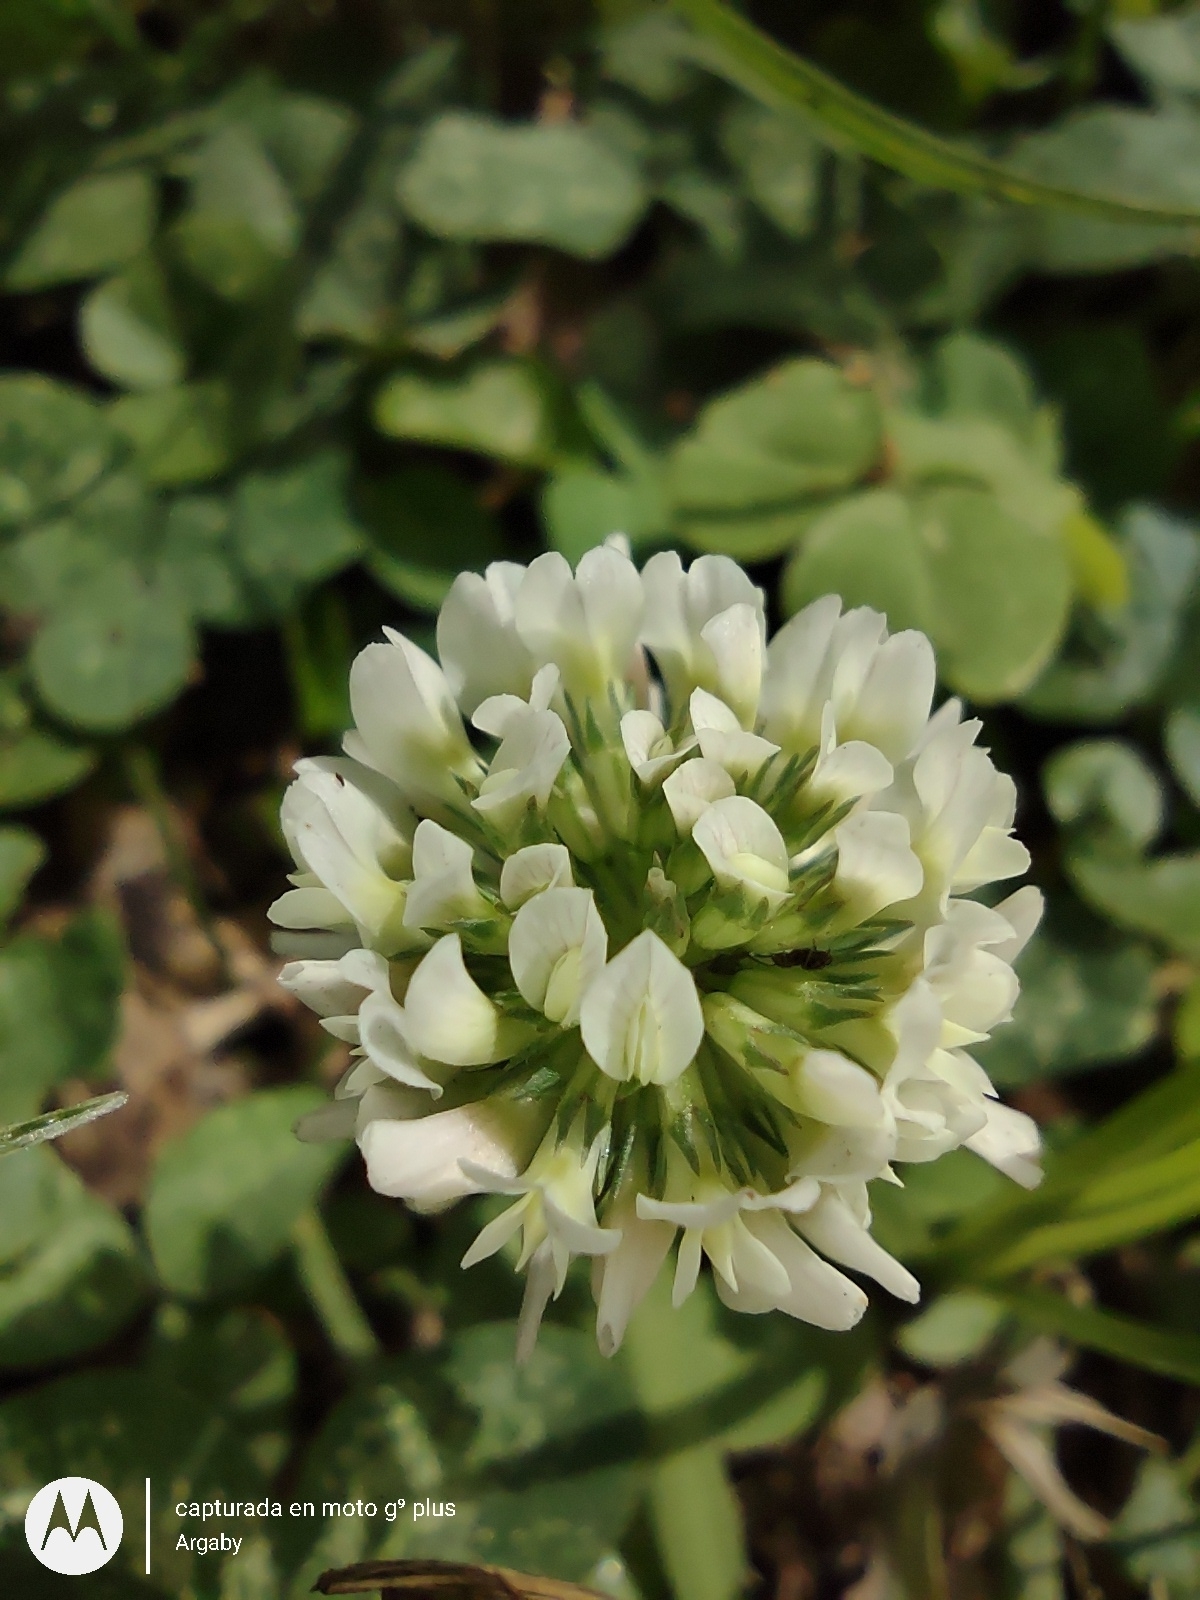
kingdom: Plantae
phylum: Tracheophyta
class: Magnoliopsida
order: Fabales
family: Fabaceae
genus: Trifolium
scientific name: Trifolium repens
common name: White clover
